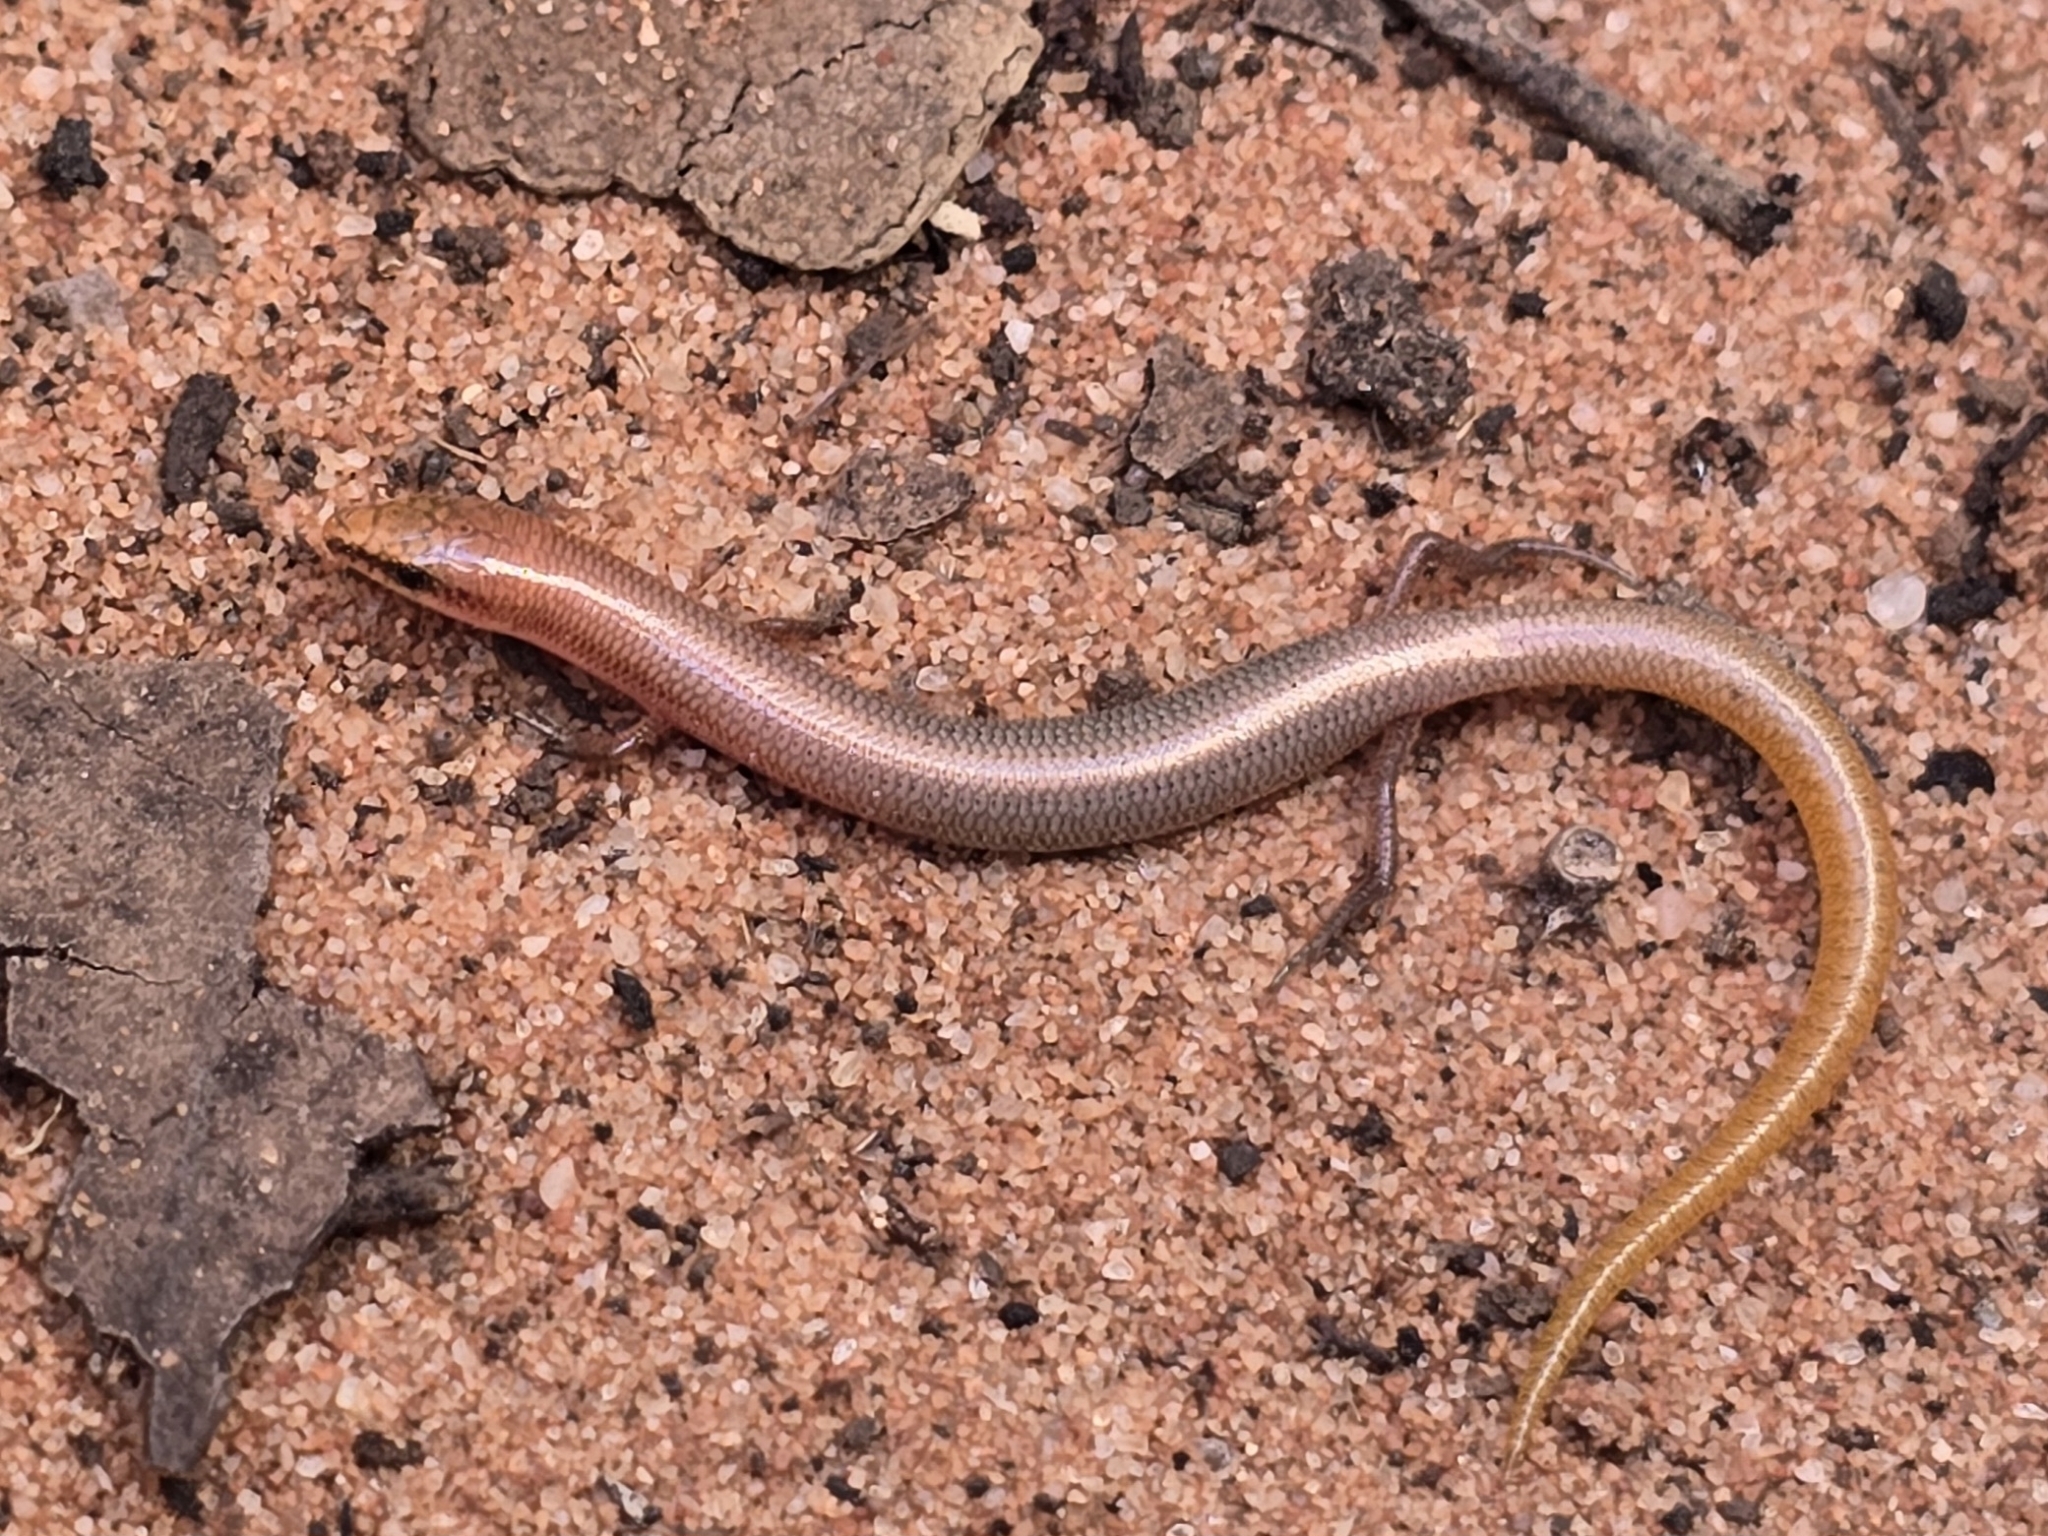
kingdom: Animalia
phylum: Chordata
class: Squamata
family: Scincidae
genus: Lerista
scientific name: Lerista aericeps
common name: Desert plain slider
